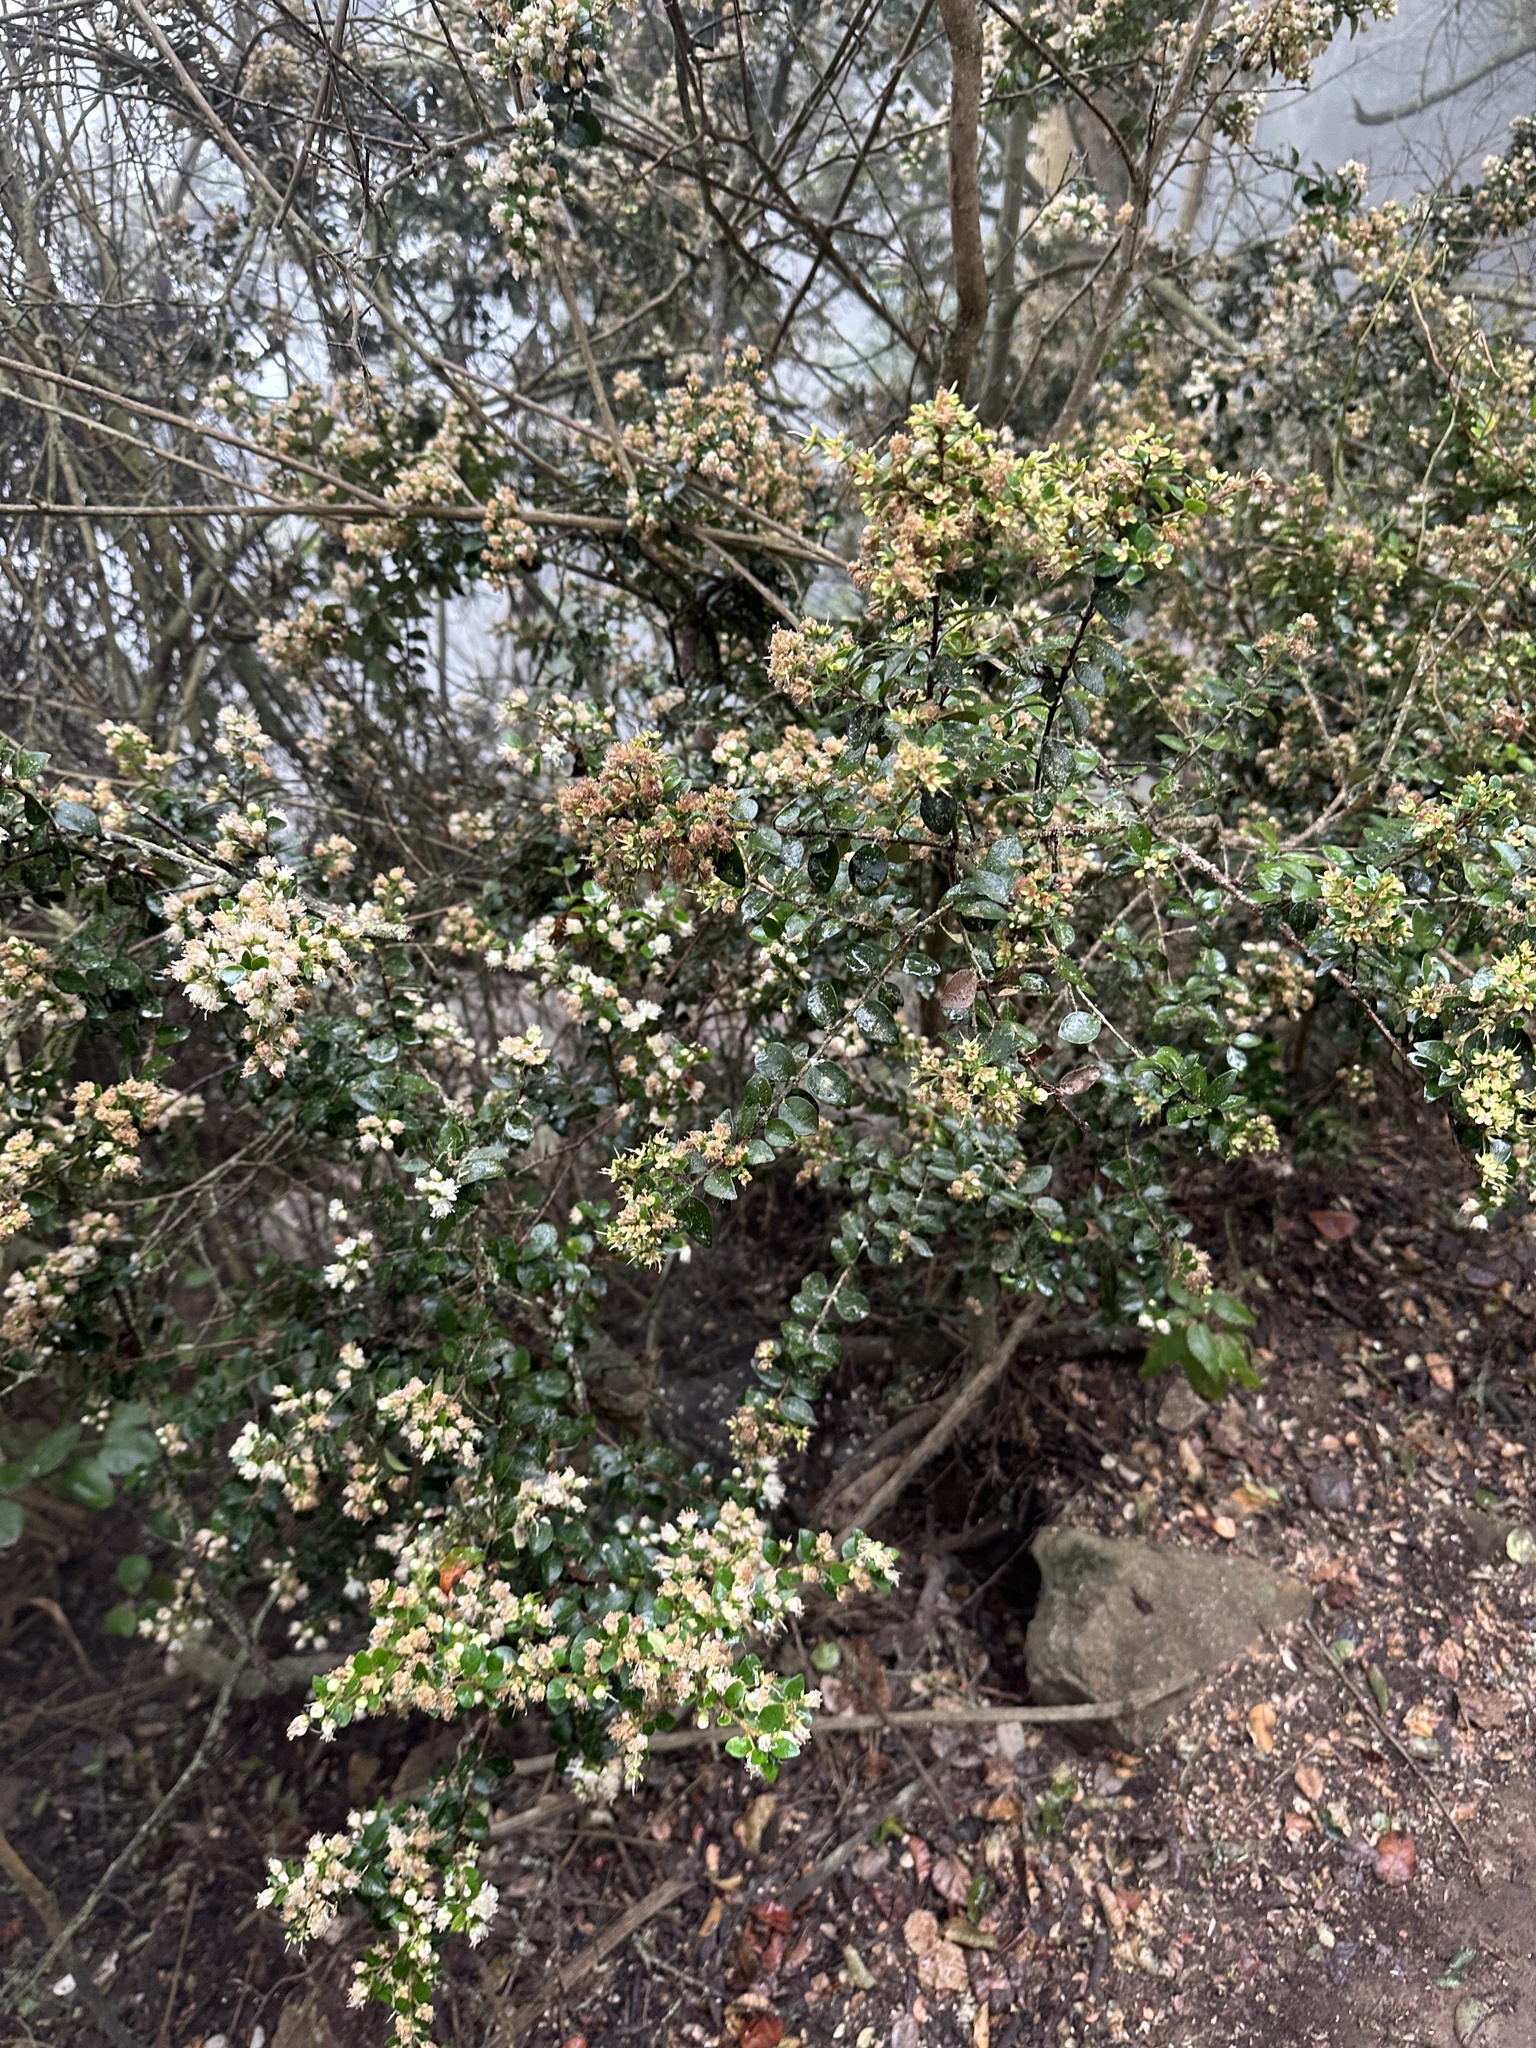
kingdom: Plantae
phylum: Tracheophyta
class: Magnoliopsida
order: Myrtales
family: Myrtaceae
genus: Myrceugenia
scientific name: Myrceugenia obtusa
